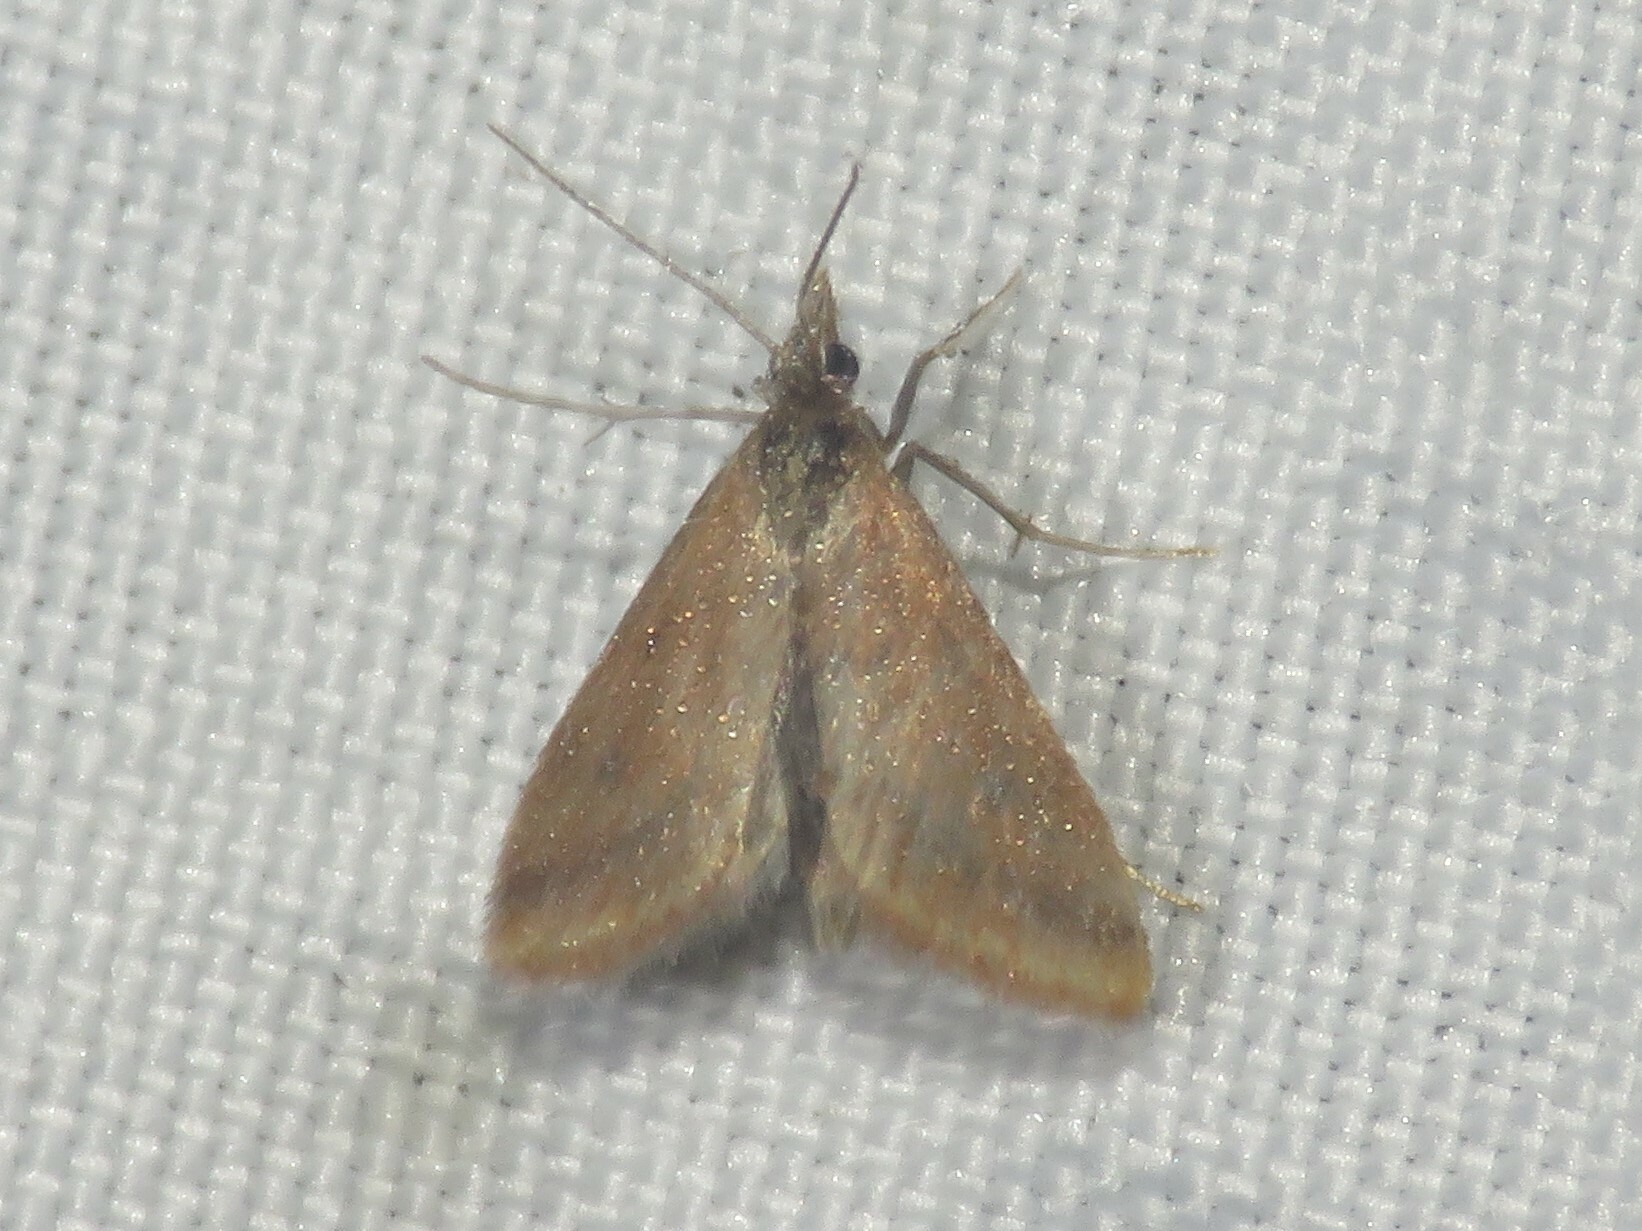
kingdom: Animalia
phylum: Arthropoda
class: Insecta
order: Lepidoptera
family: Crambidae
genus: Microtheoris
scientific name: Microtheoris ophionalis
